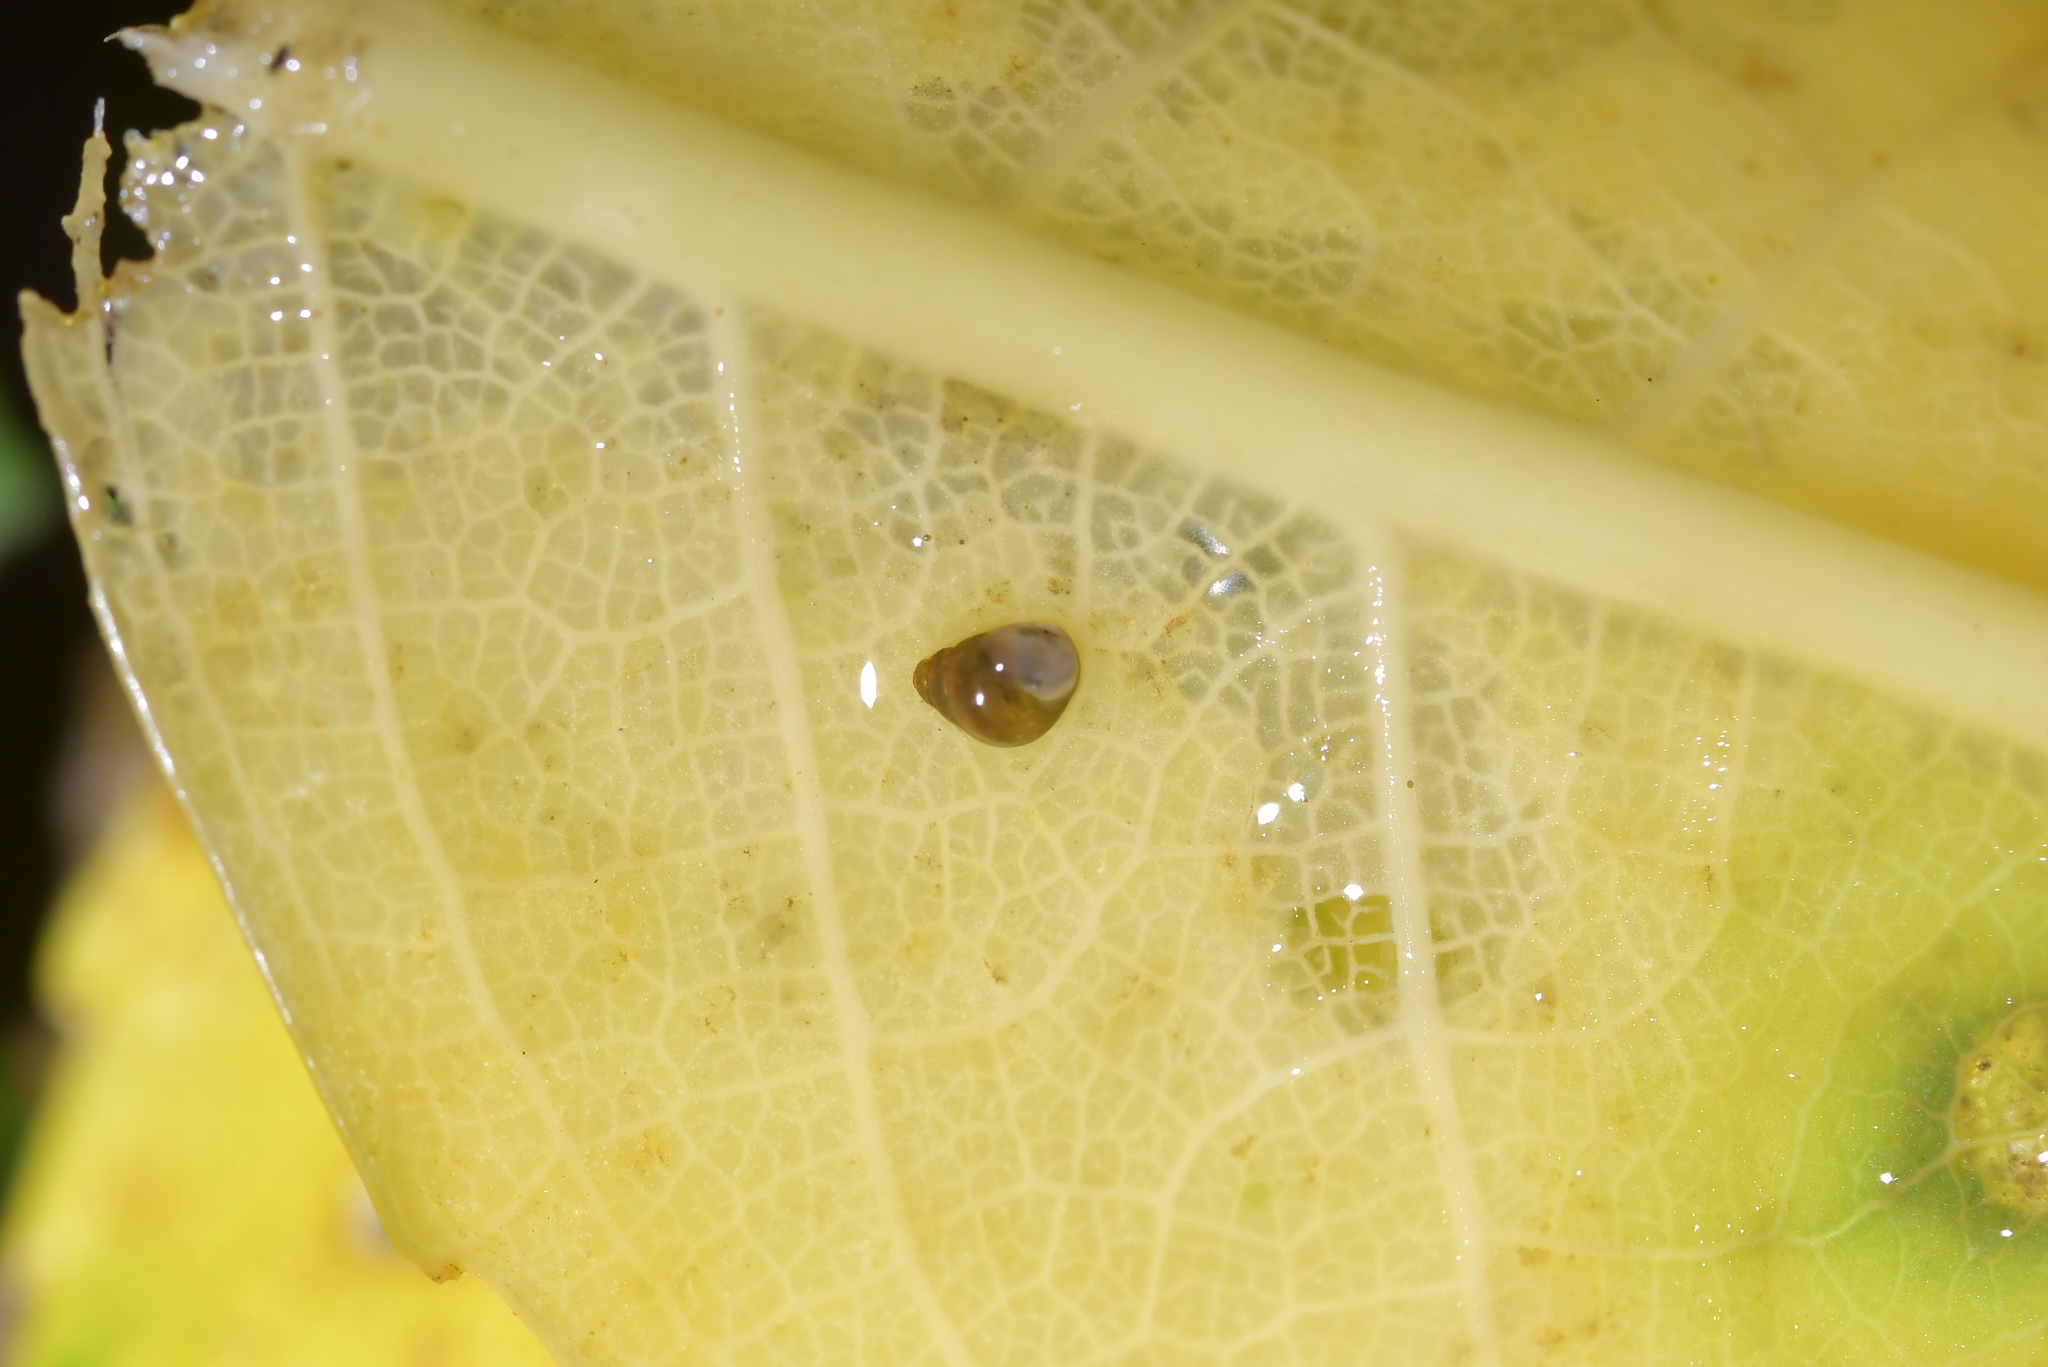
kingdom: Animalia
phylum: Mollusca
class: Gastropoda
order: Littorinimorpha
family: Tateidae
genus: Potamopyrgus
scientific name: Potamopyrgus antipodarum
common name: Jenkins' spire snail
